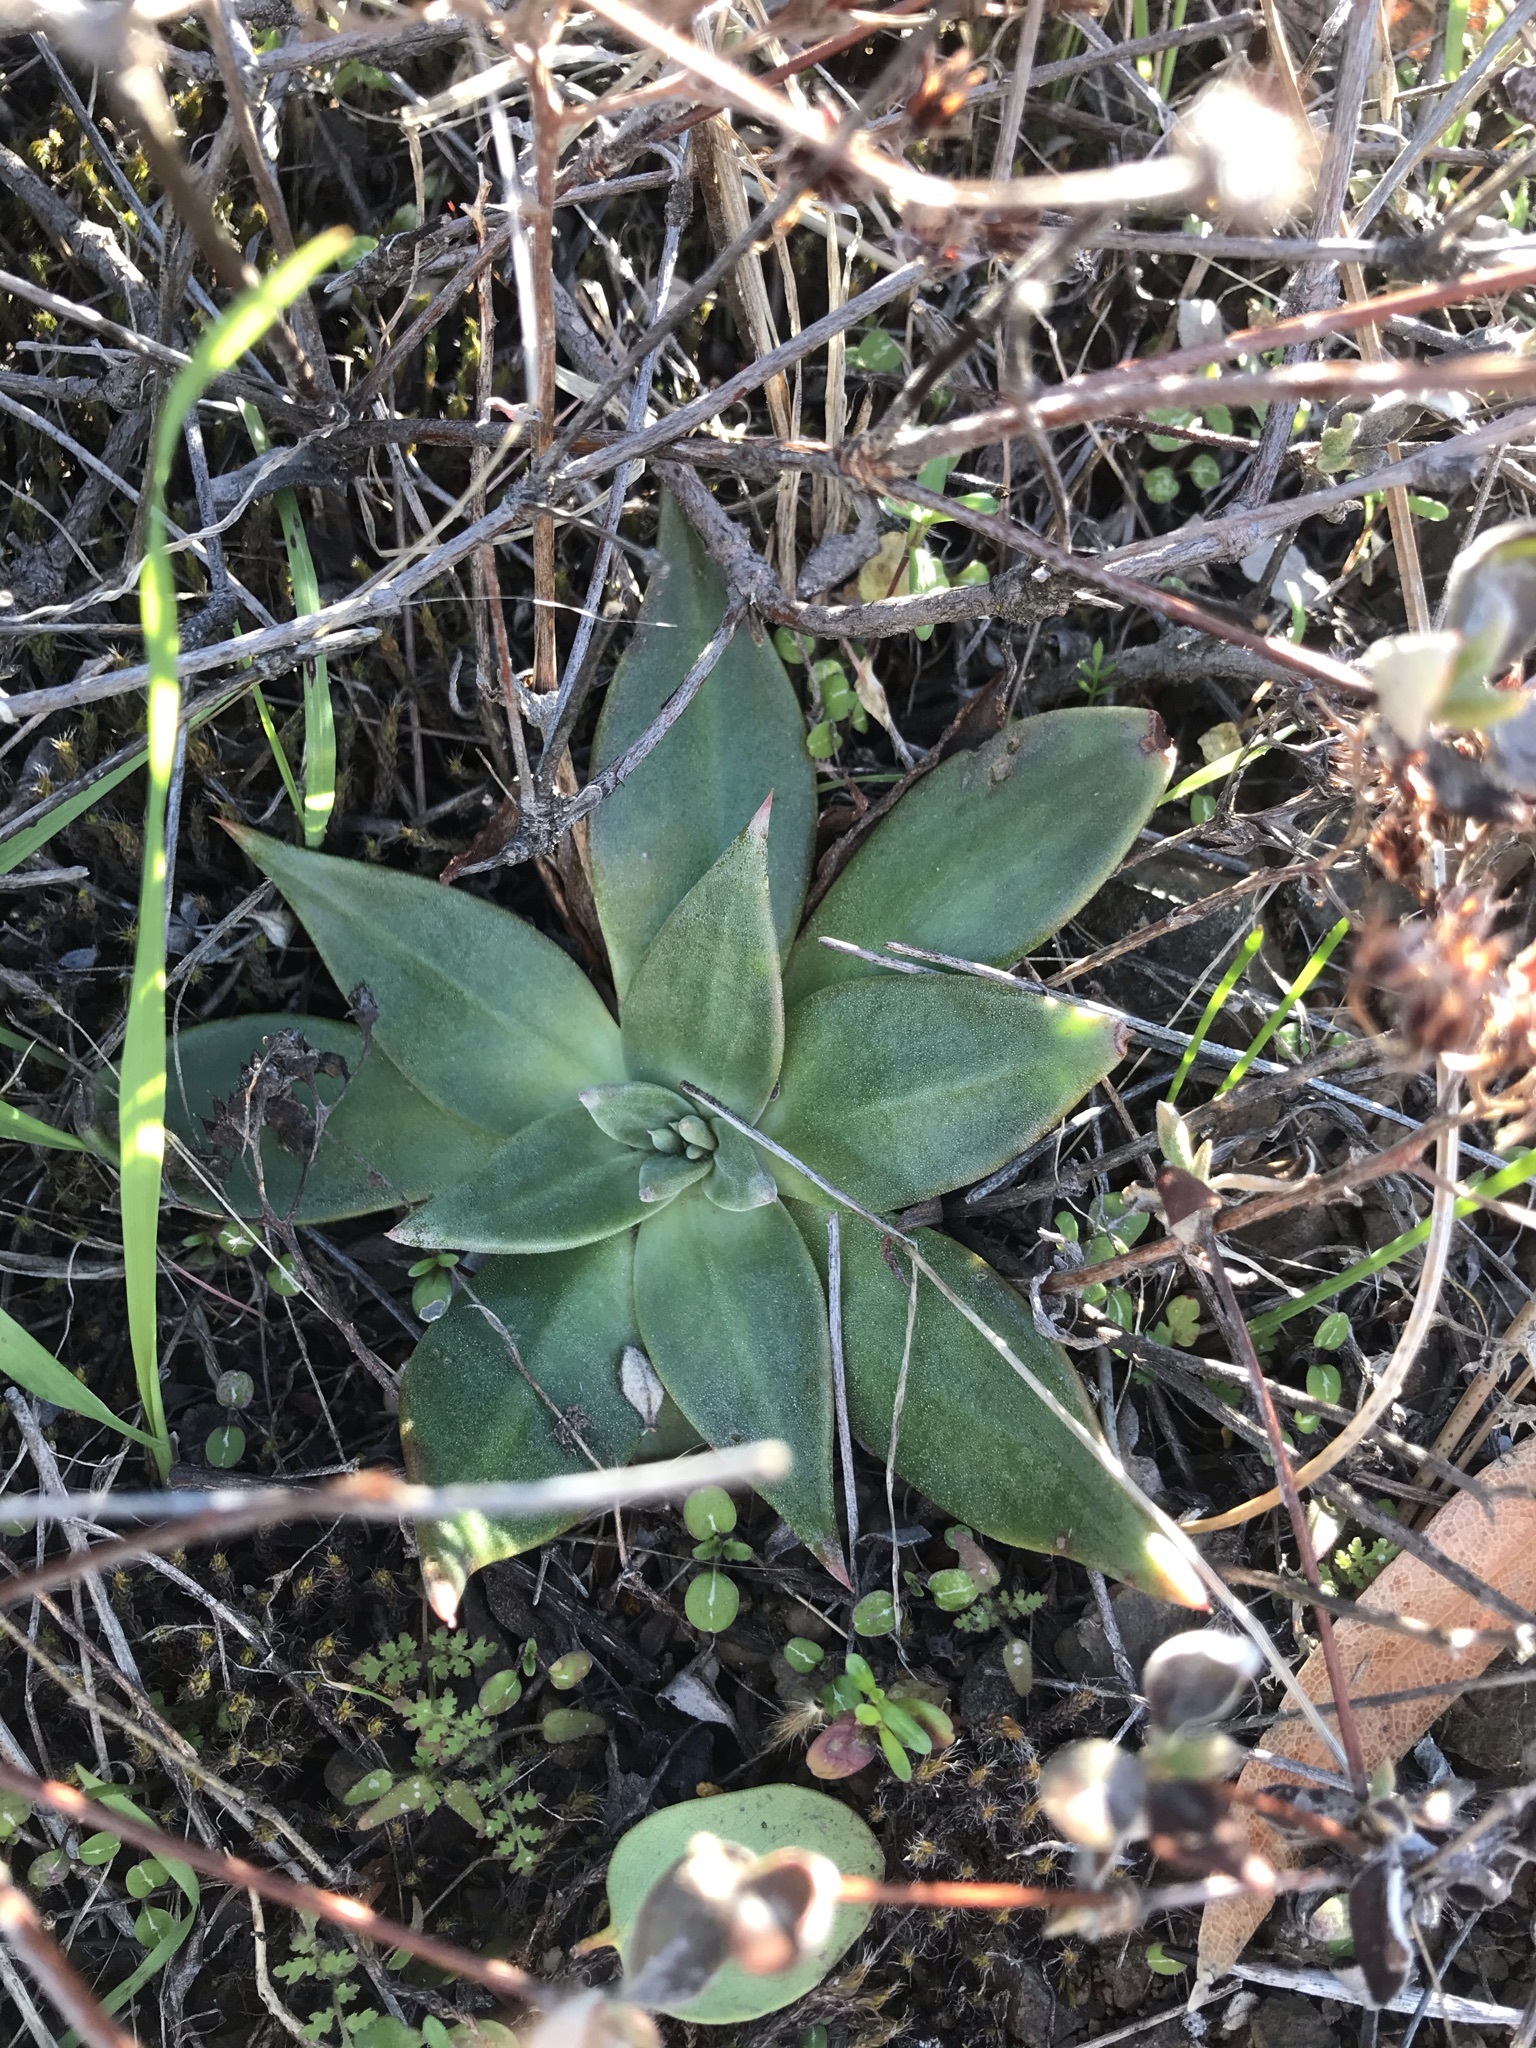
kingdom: Plantae
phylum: Tracheophyta
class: Magnoliopsida
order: Saxifragales
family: Crassulaceae
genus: Dudleya
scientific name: Dudleya cymosa
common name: Canyon dudleya
